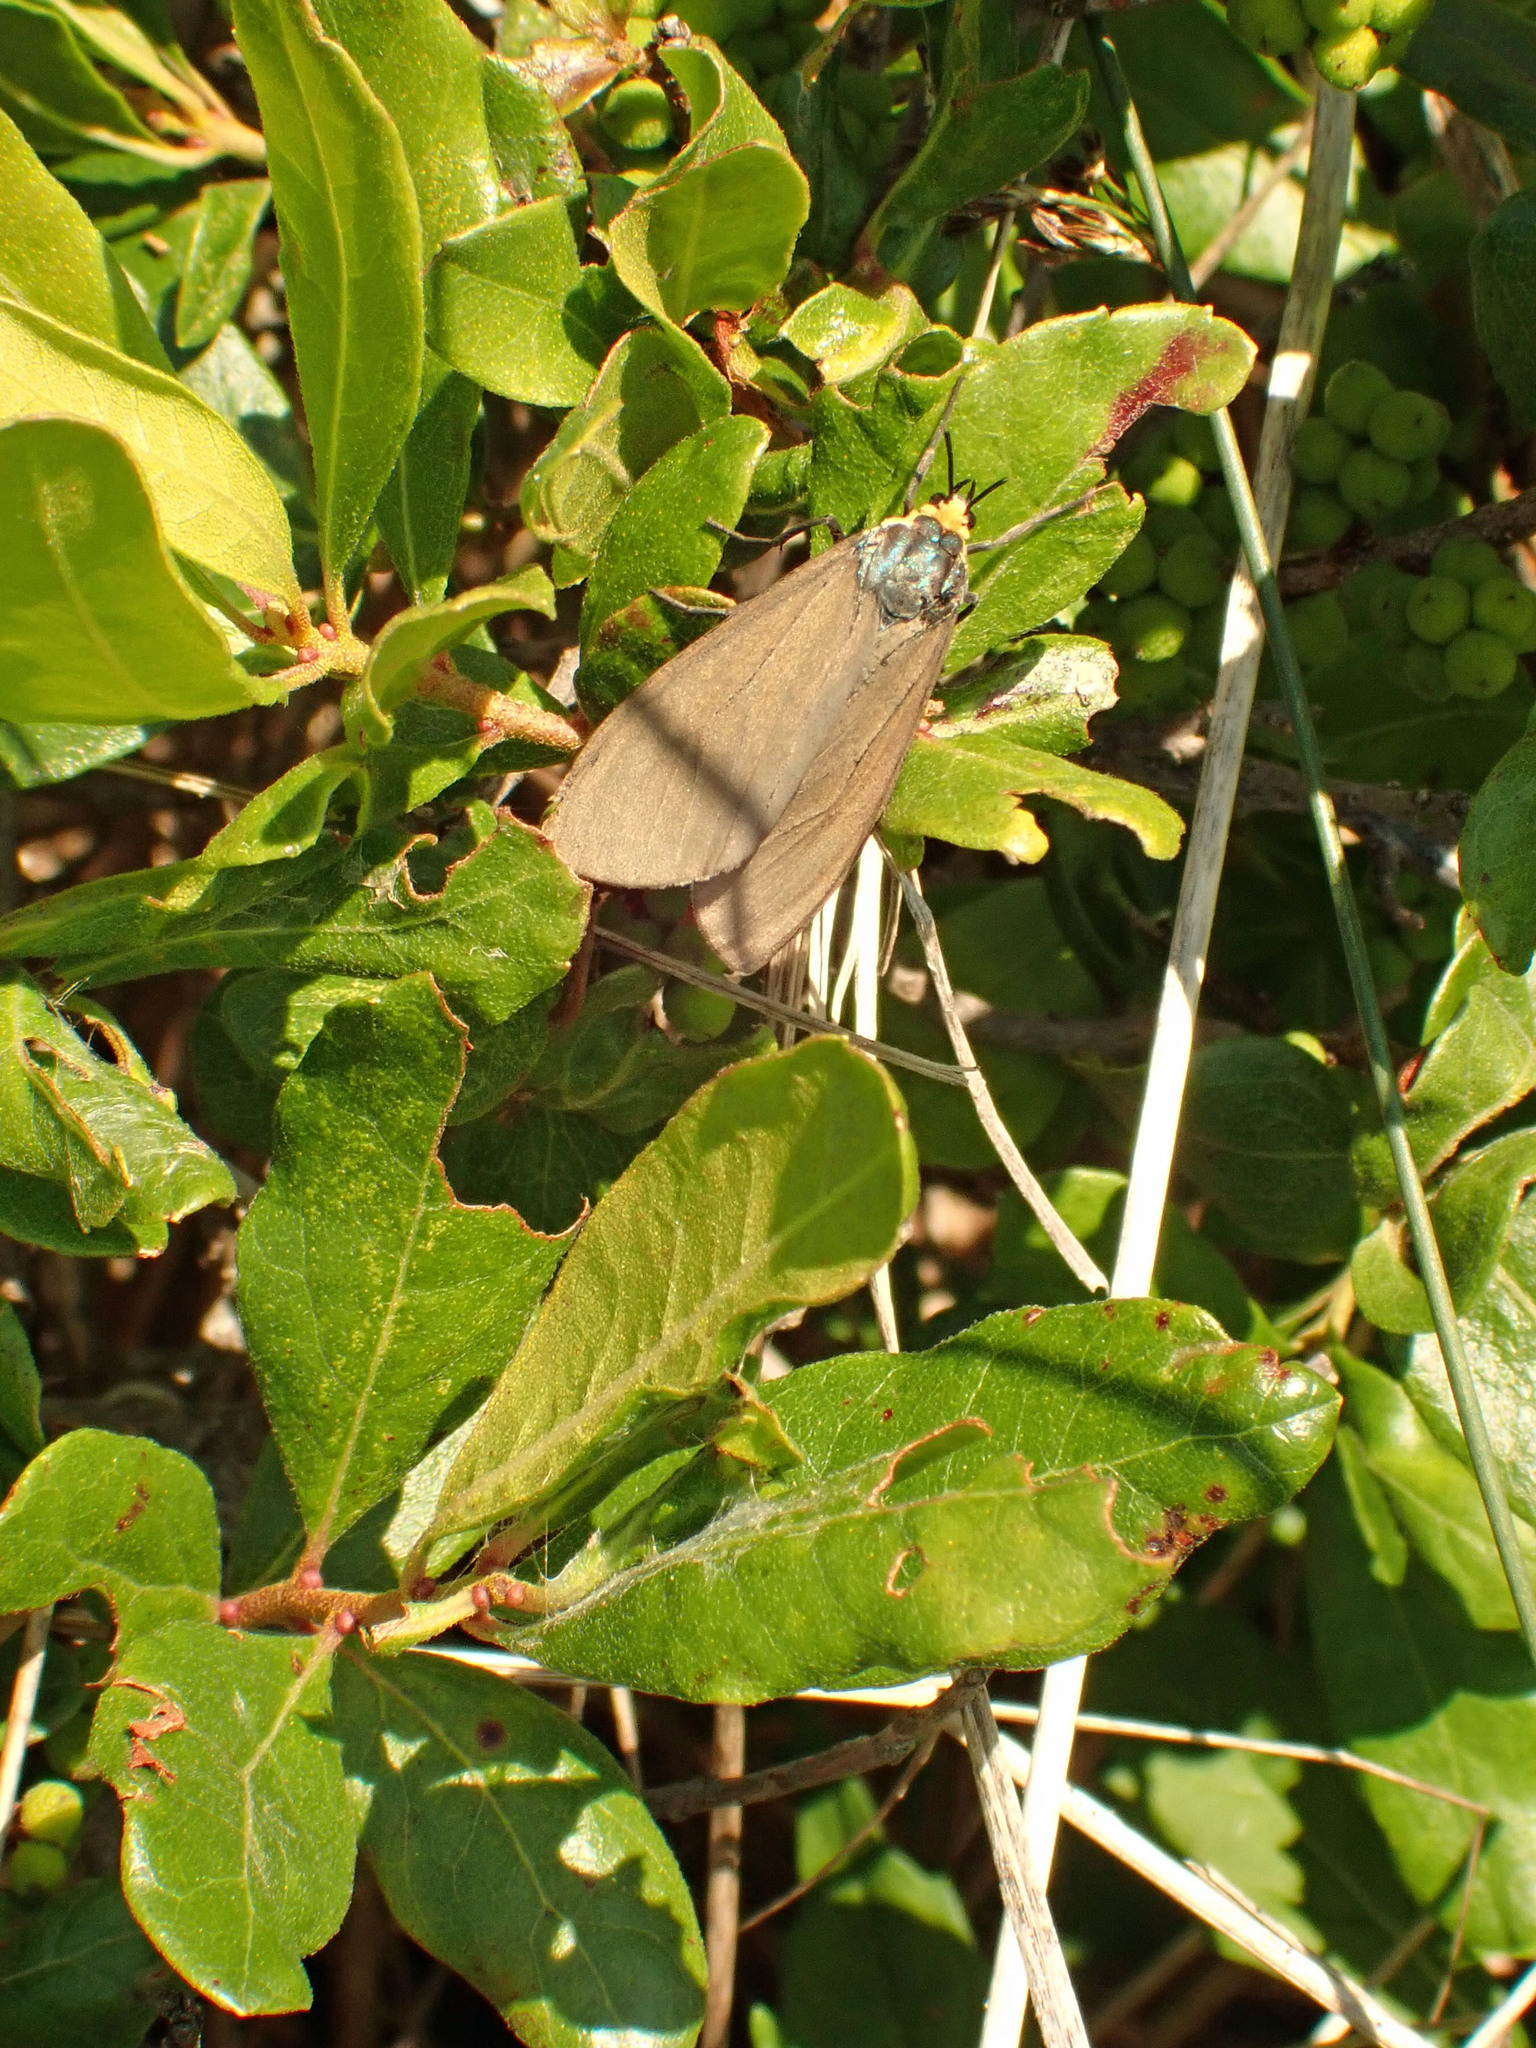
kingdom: Animalia
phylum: Arthropoda
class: Insecta
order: Lepidoptera
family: Erebidae
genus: Ctenucha
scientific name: Ctenucha virginica
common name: Virginia ctenucha moth
